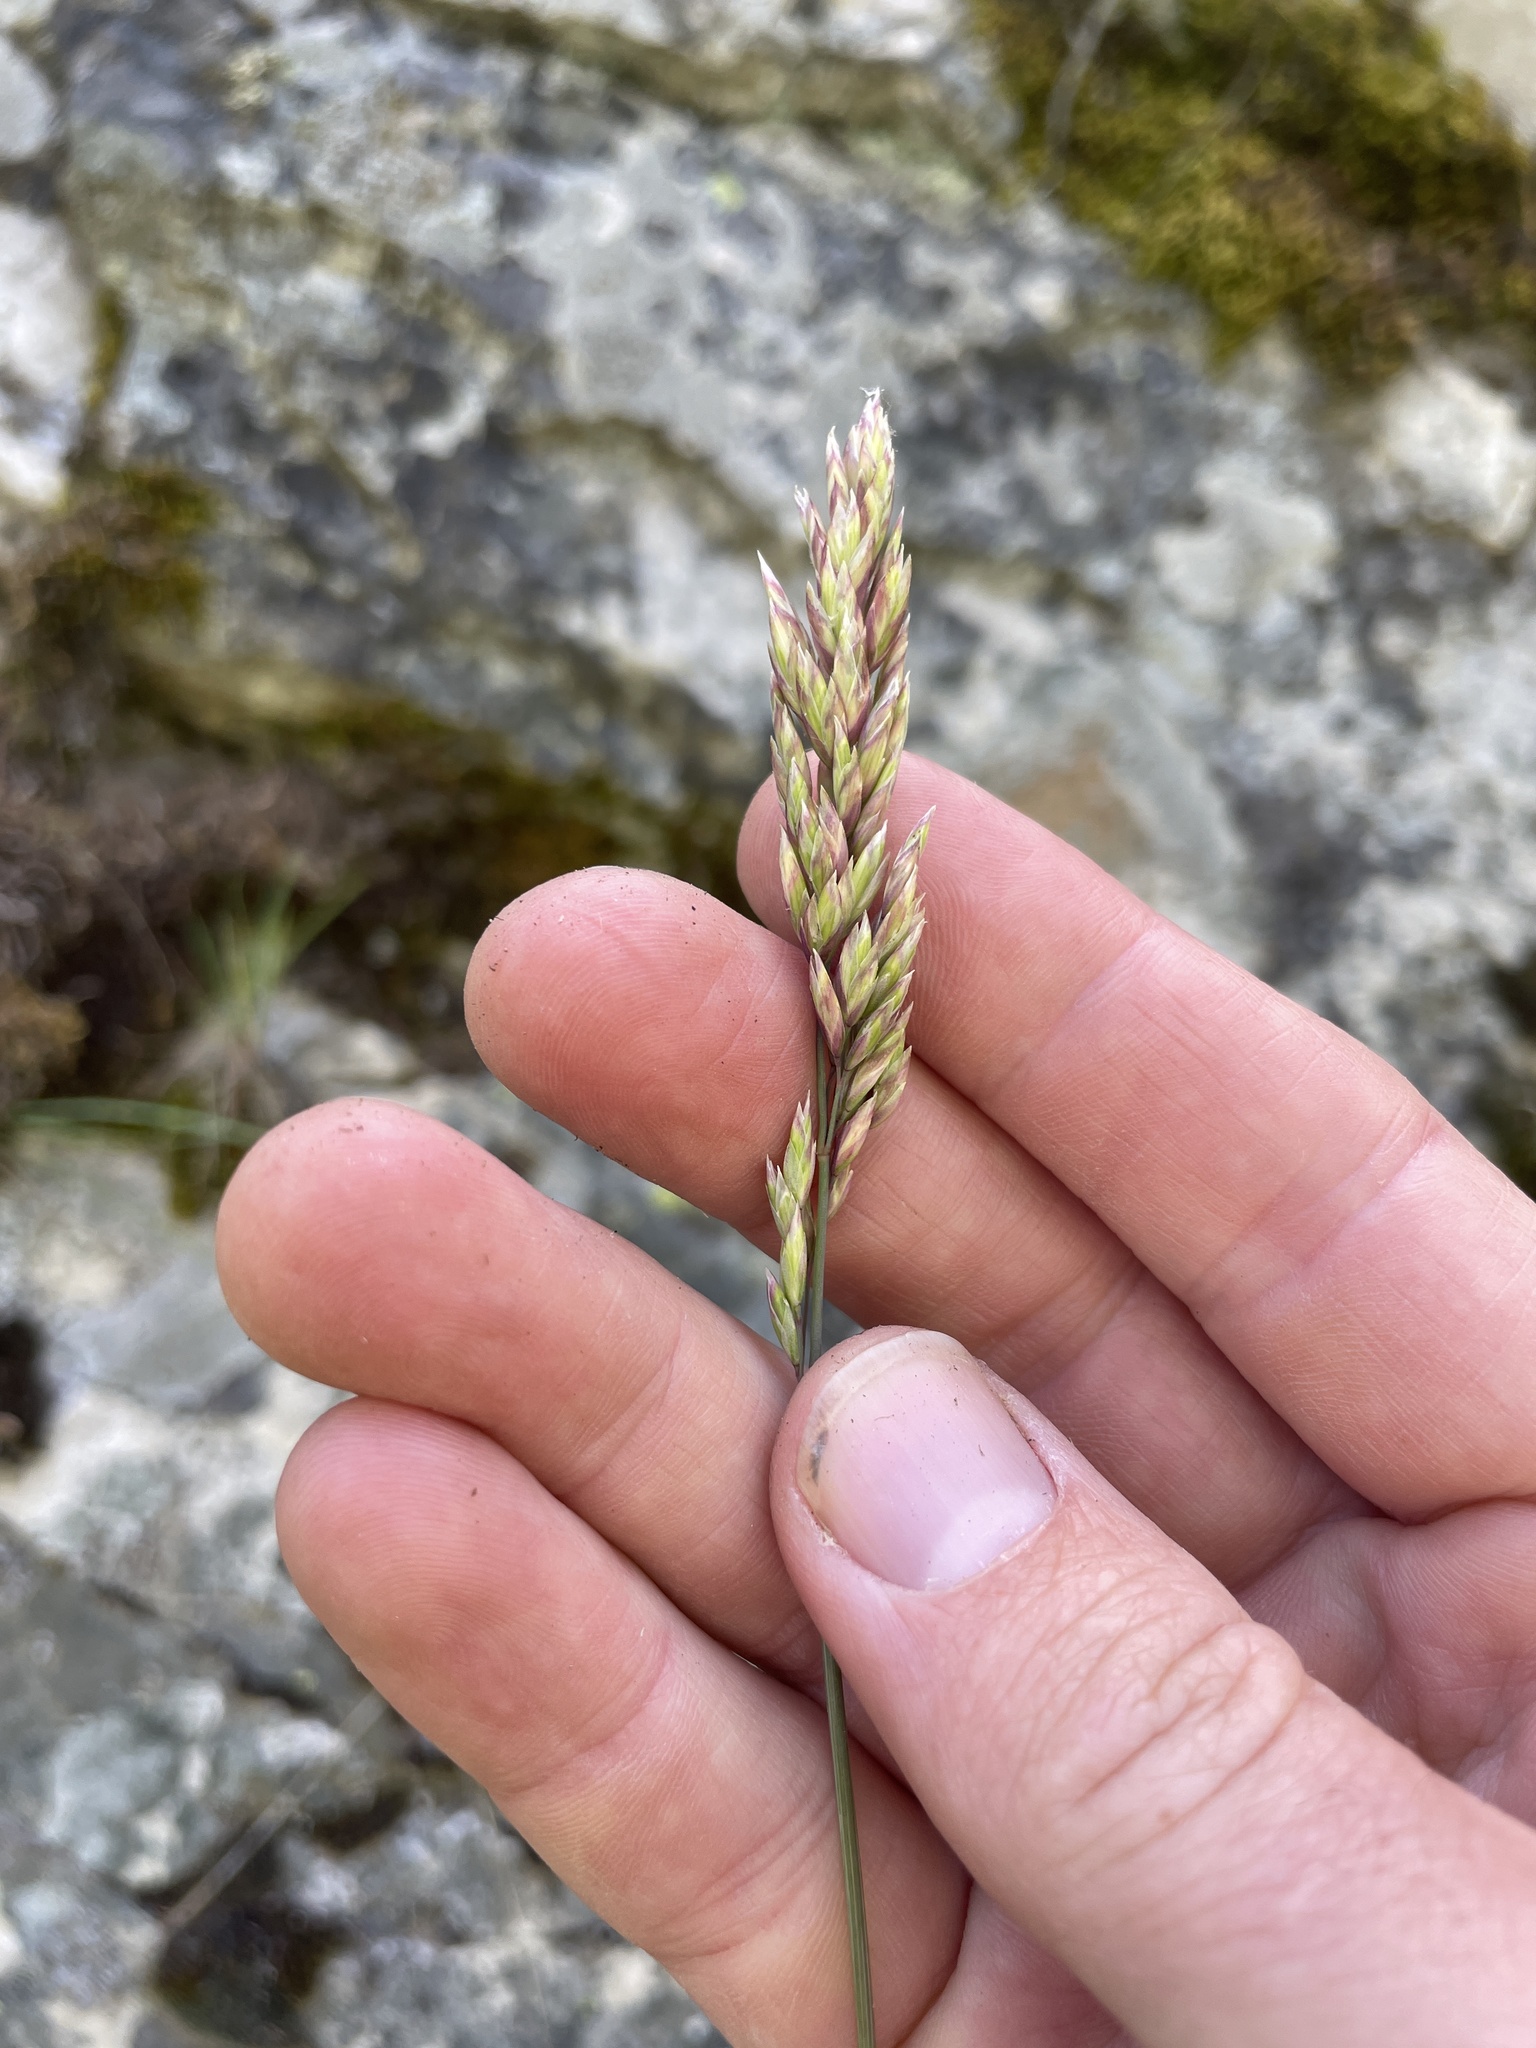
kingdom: Plantae
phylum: Tracheophyta
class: Liliopsida
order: Poales
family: Poaceae
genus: Poa
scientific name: Poa fendleriana
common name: Mutton bluegrass
